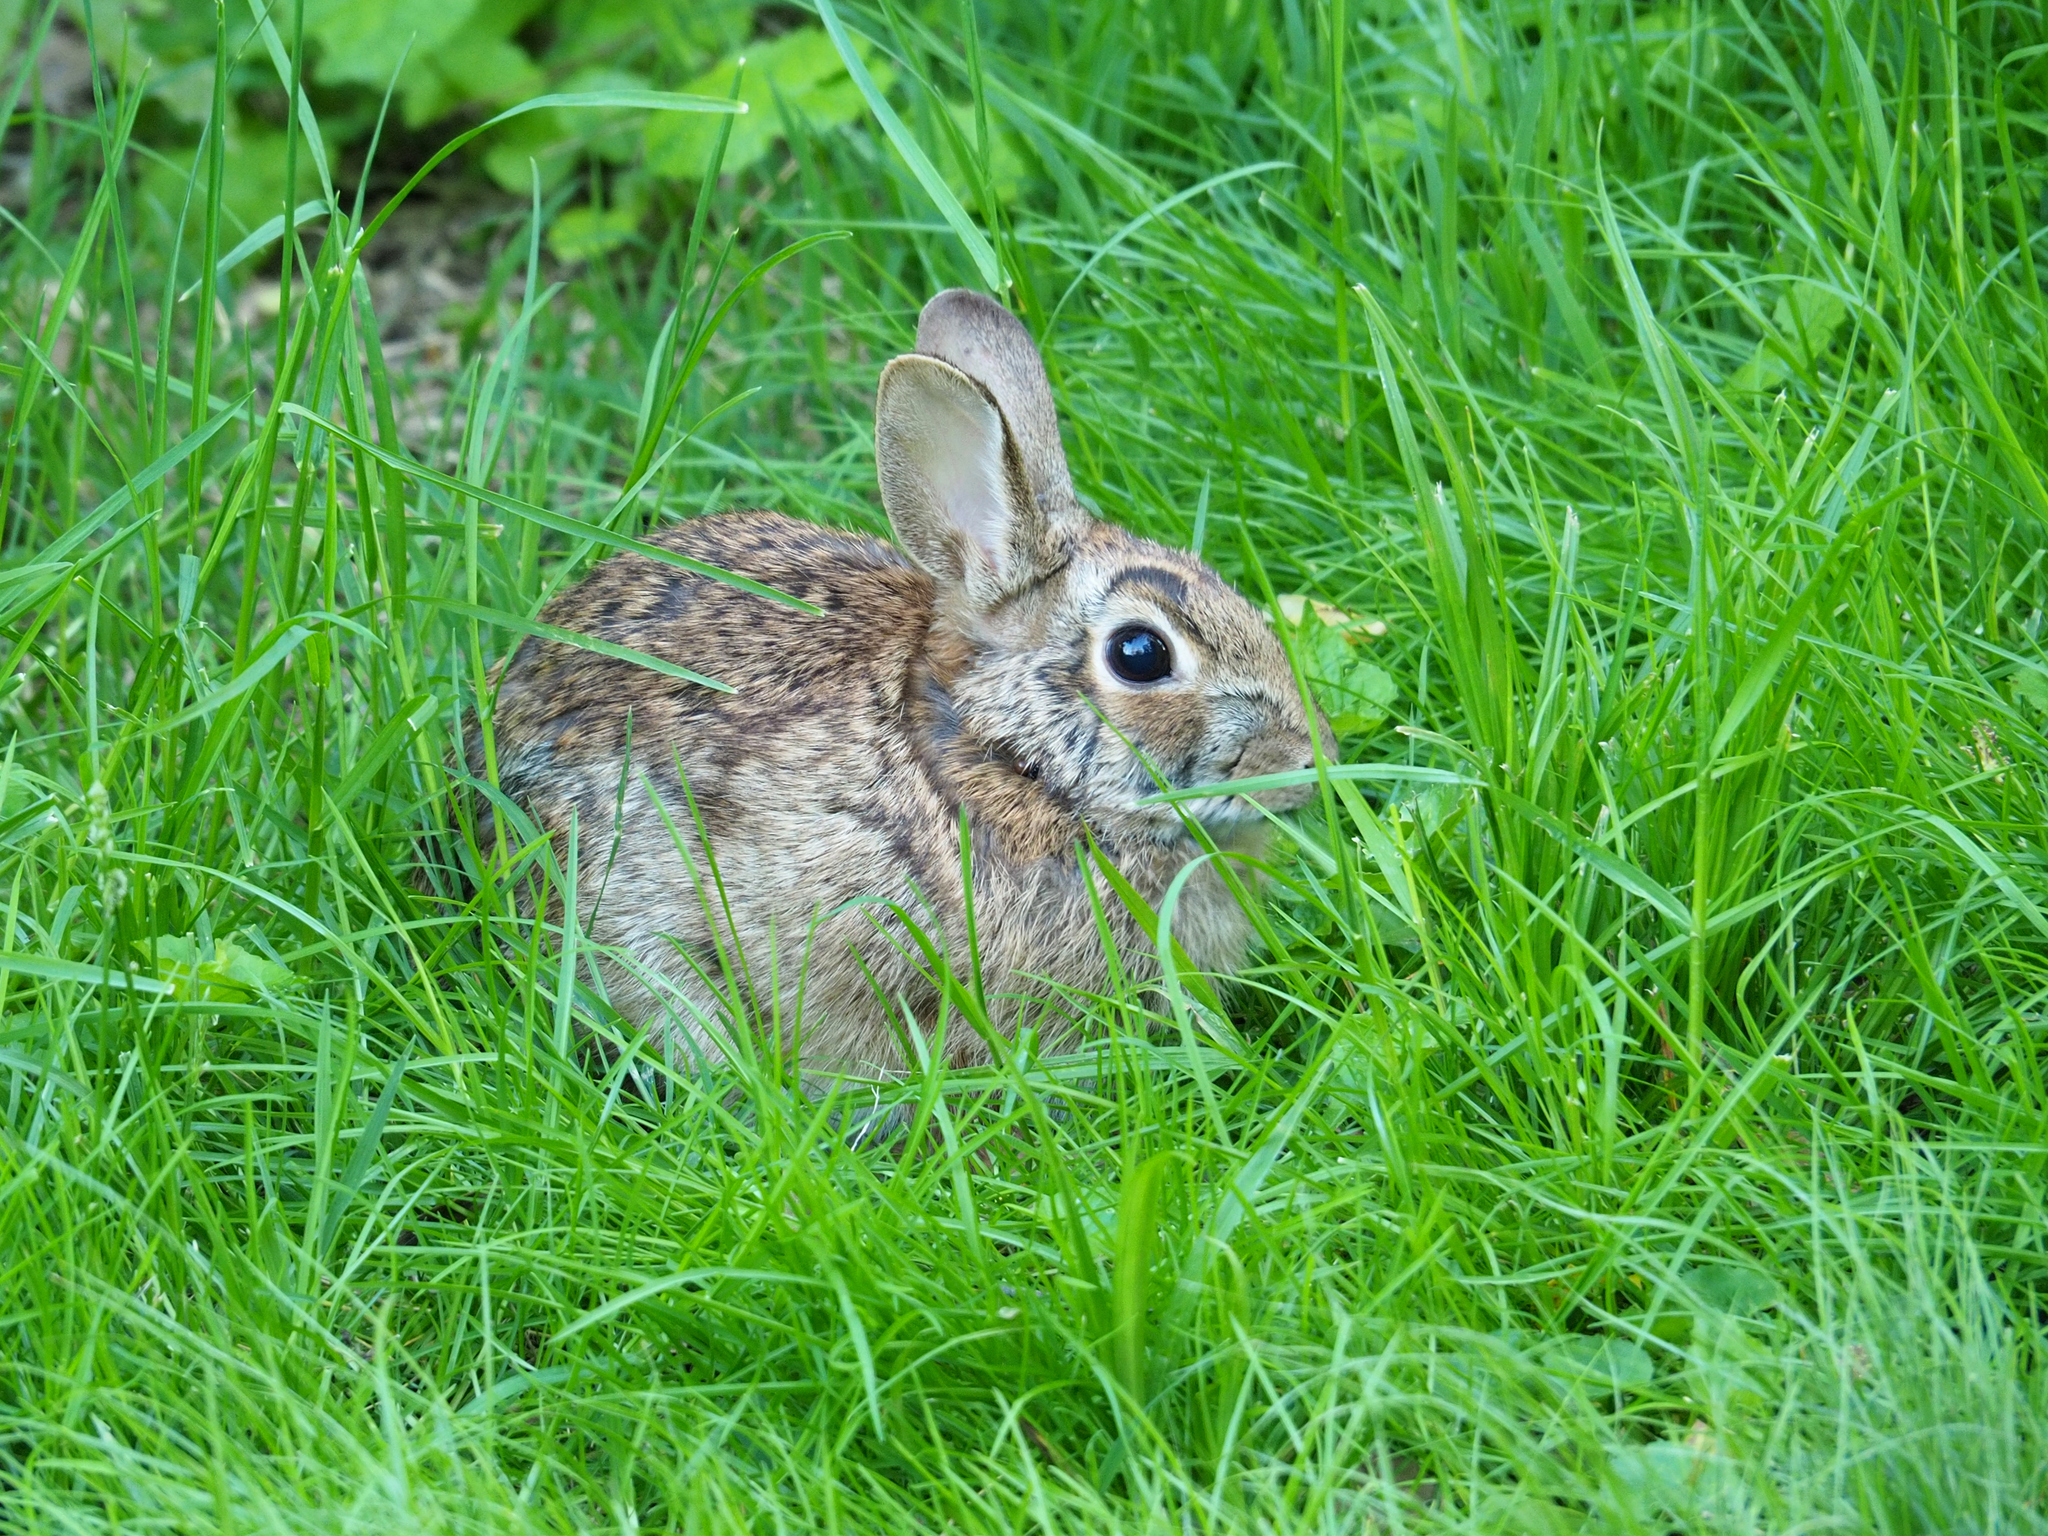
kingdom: Animalia
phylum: Chordata
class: Mammalia
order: Lagomorpha
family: Leporidae
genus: Sylvilagus
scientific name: Sylvilagus floridanus
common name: Eastern cottontail
